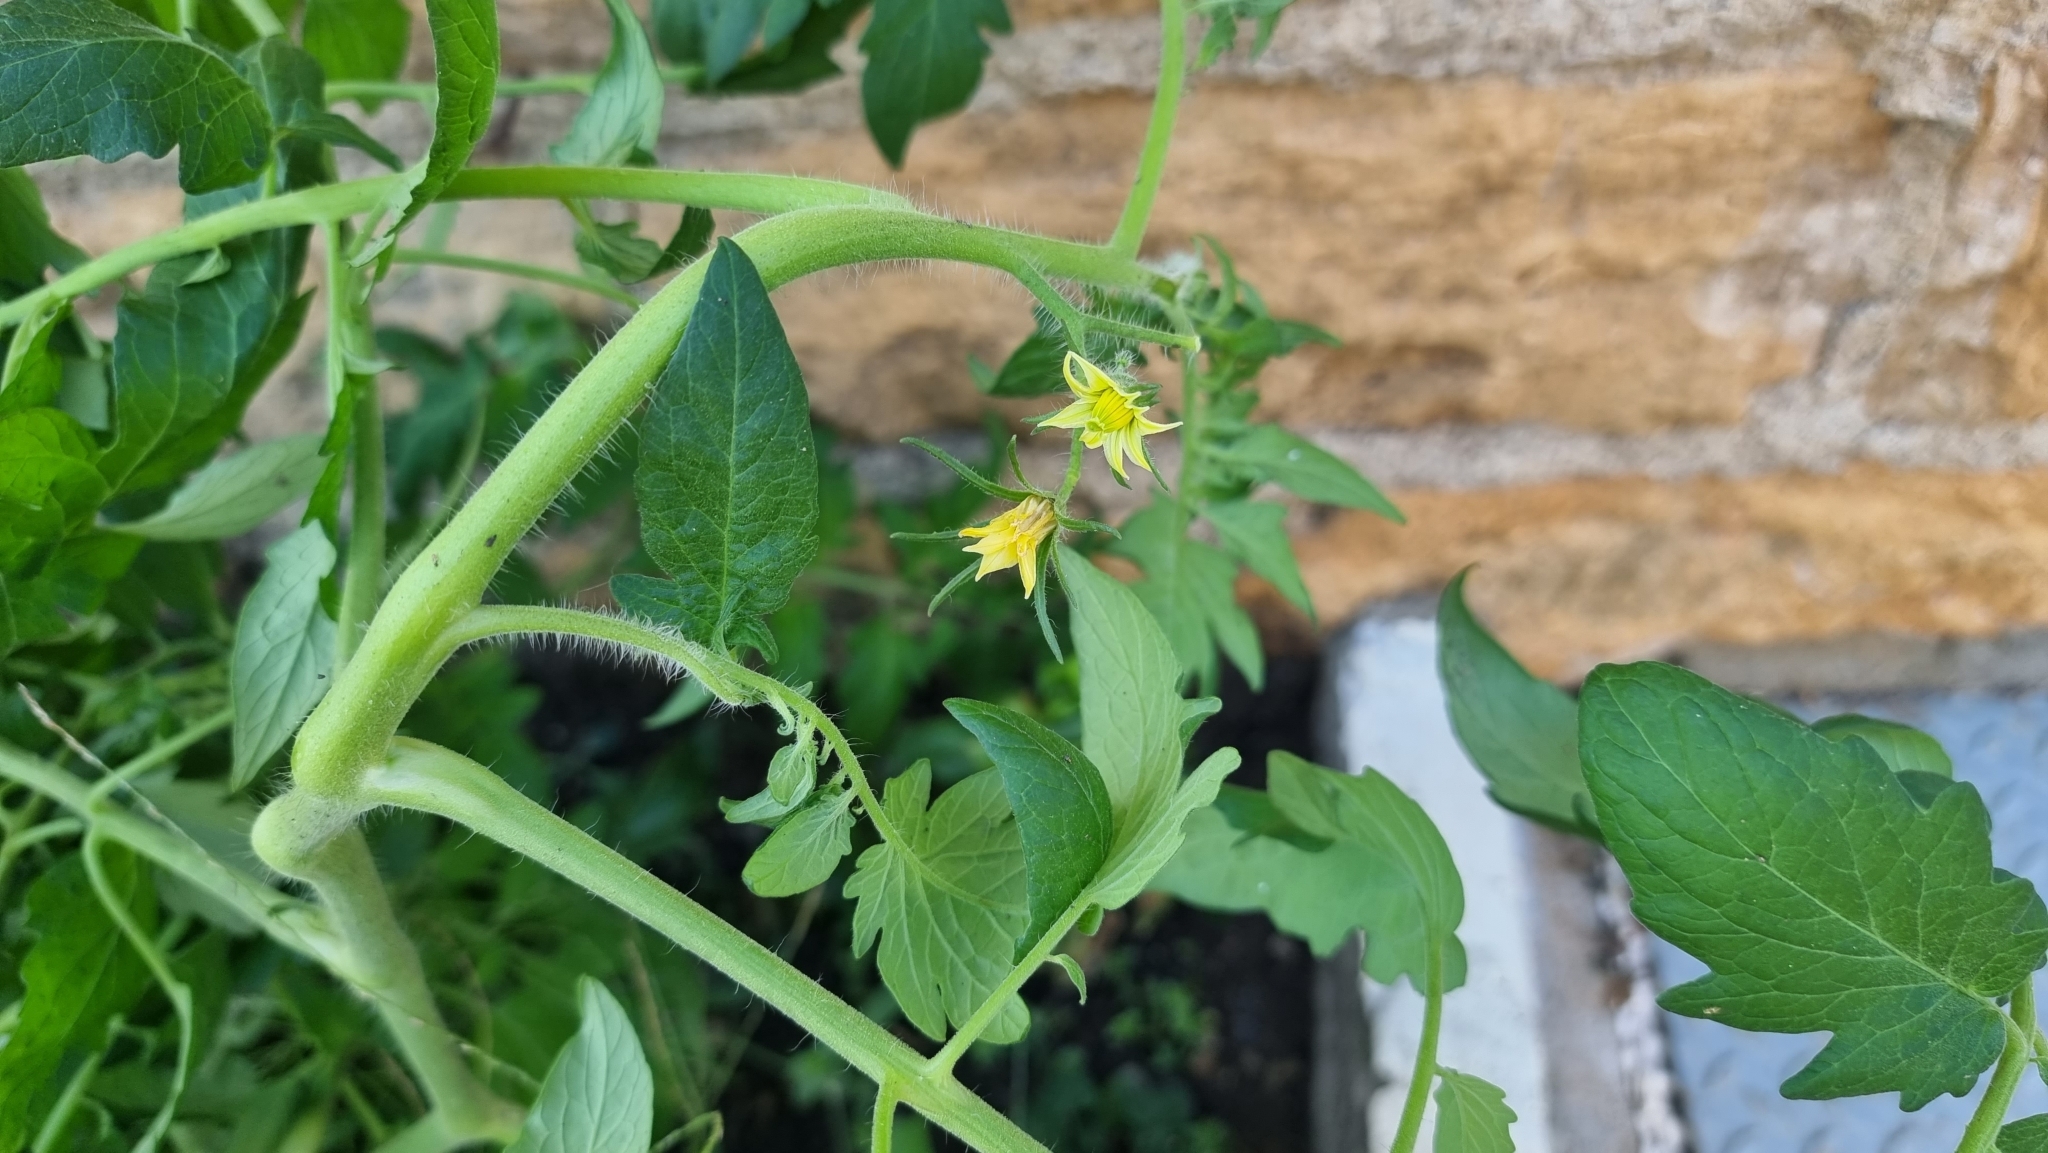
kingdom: Plantae
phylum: Tracheophyta
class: Magnoliopsida
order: Solanales
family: Solanaceae
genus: Solanum
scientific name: Solanum lycopersicum
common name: Garden tomato
